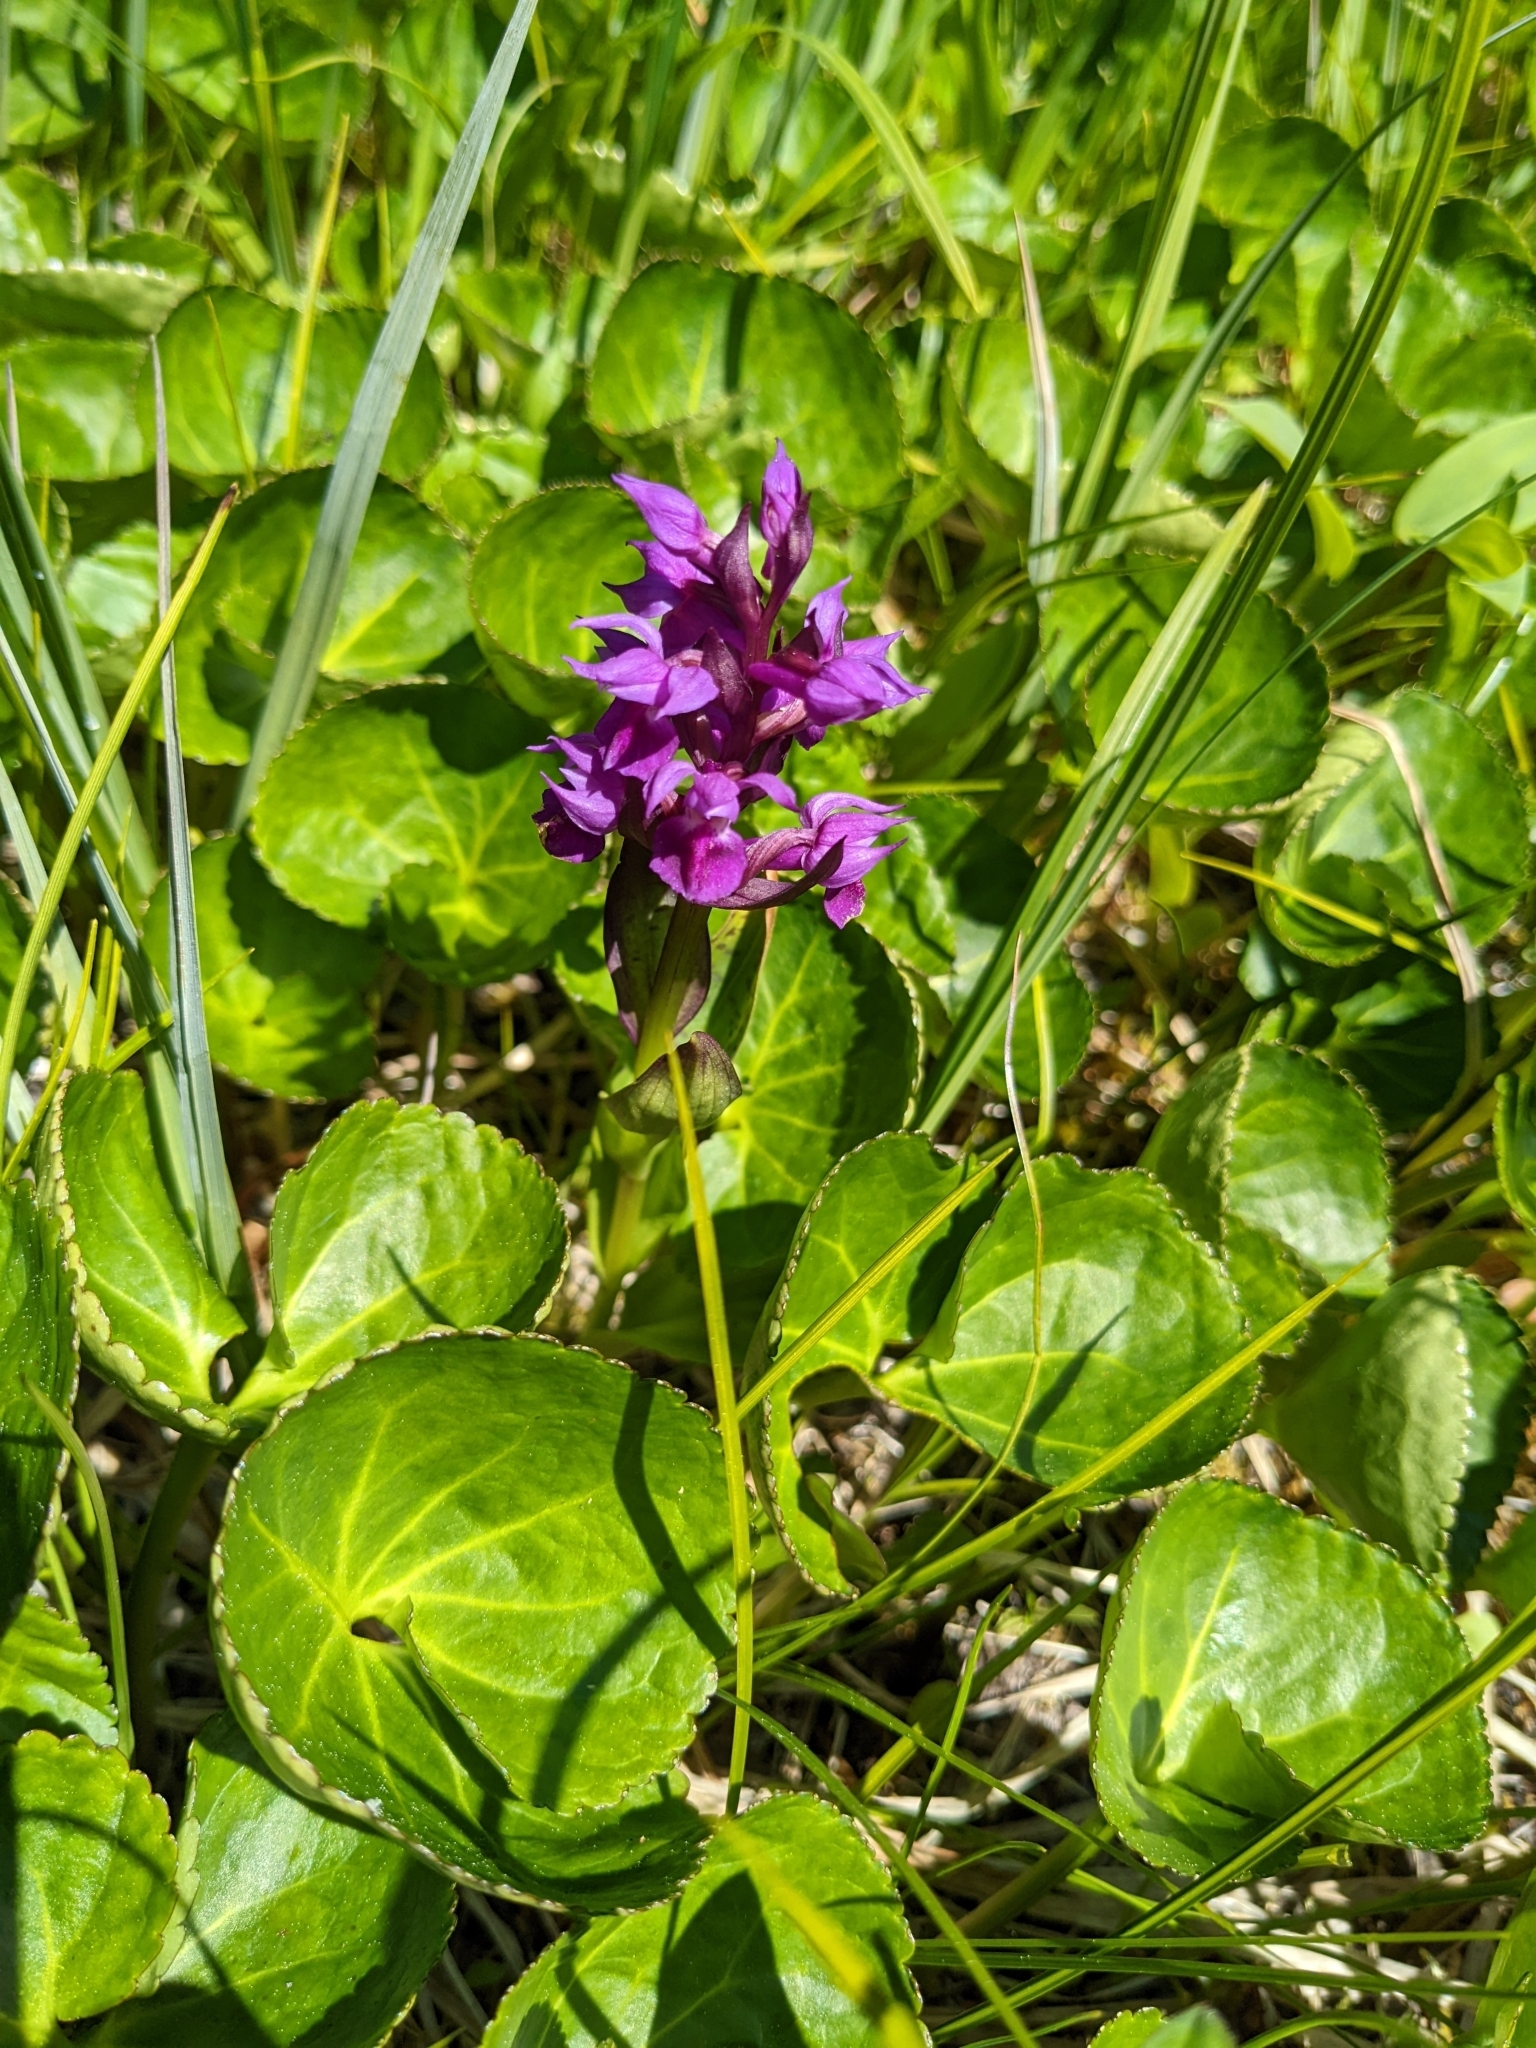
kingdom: Plantae
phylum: Tracheophyta
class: Liliopsida
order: Asparagales
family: Orchidaceae
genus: Dactylorhiza
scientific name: Dactylorhiza aristata
